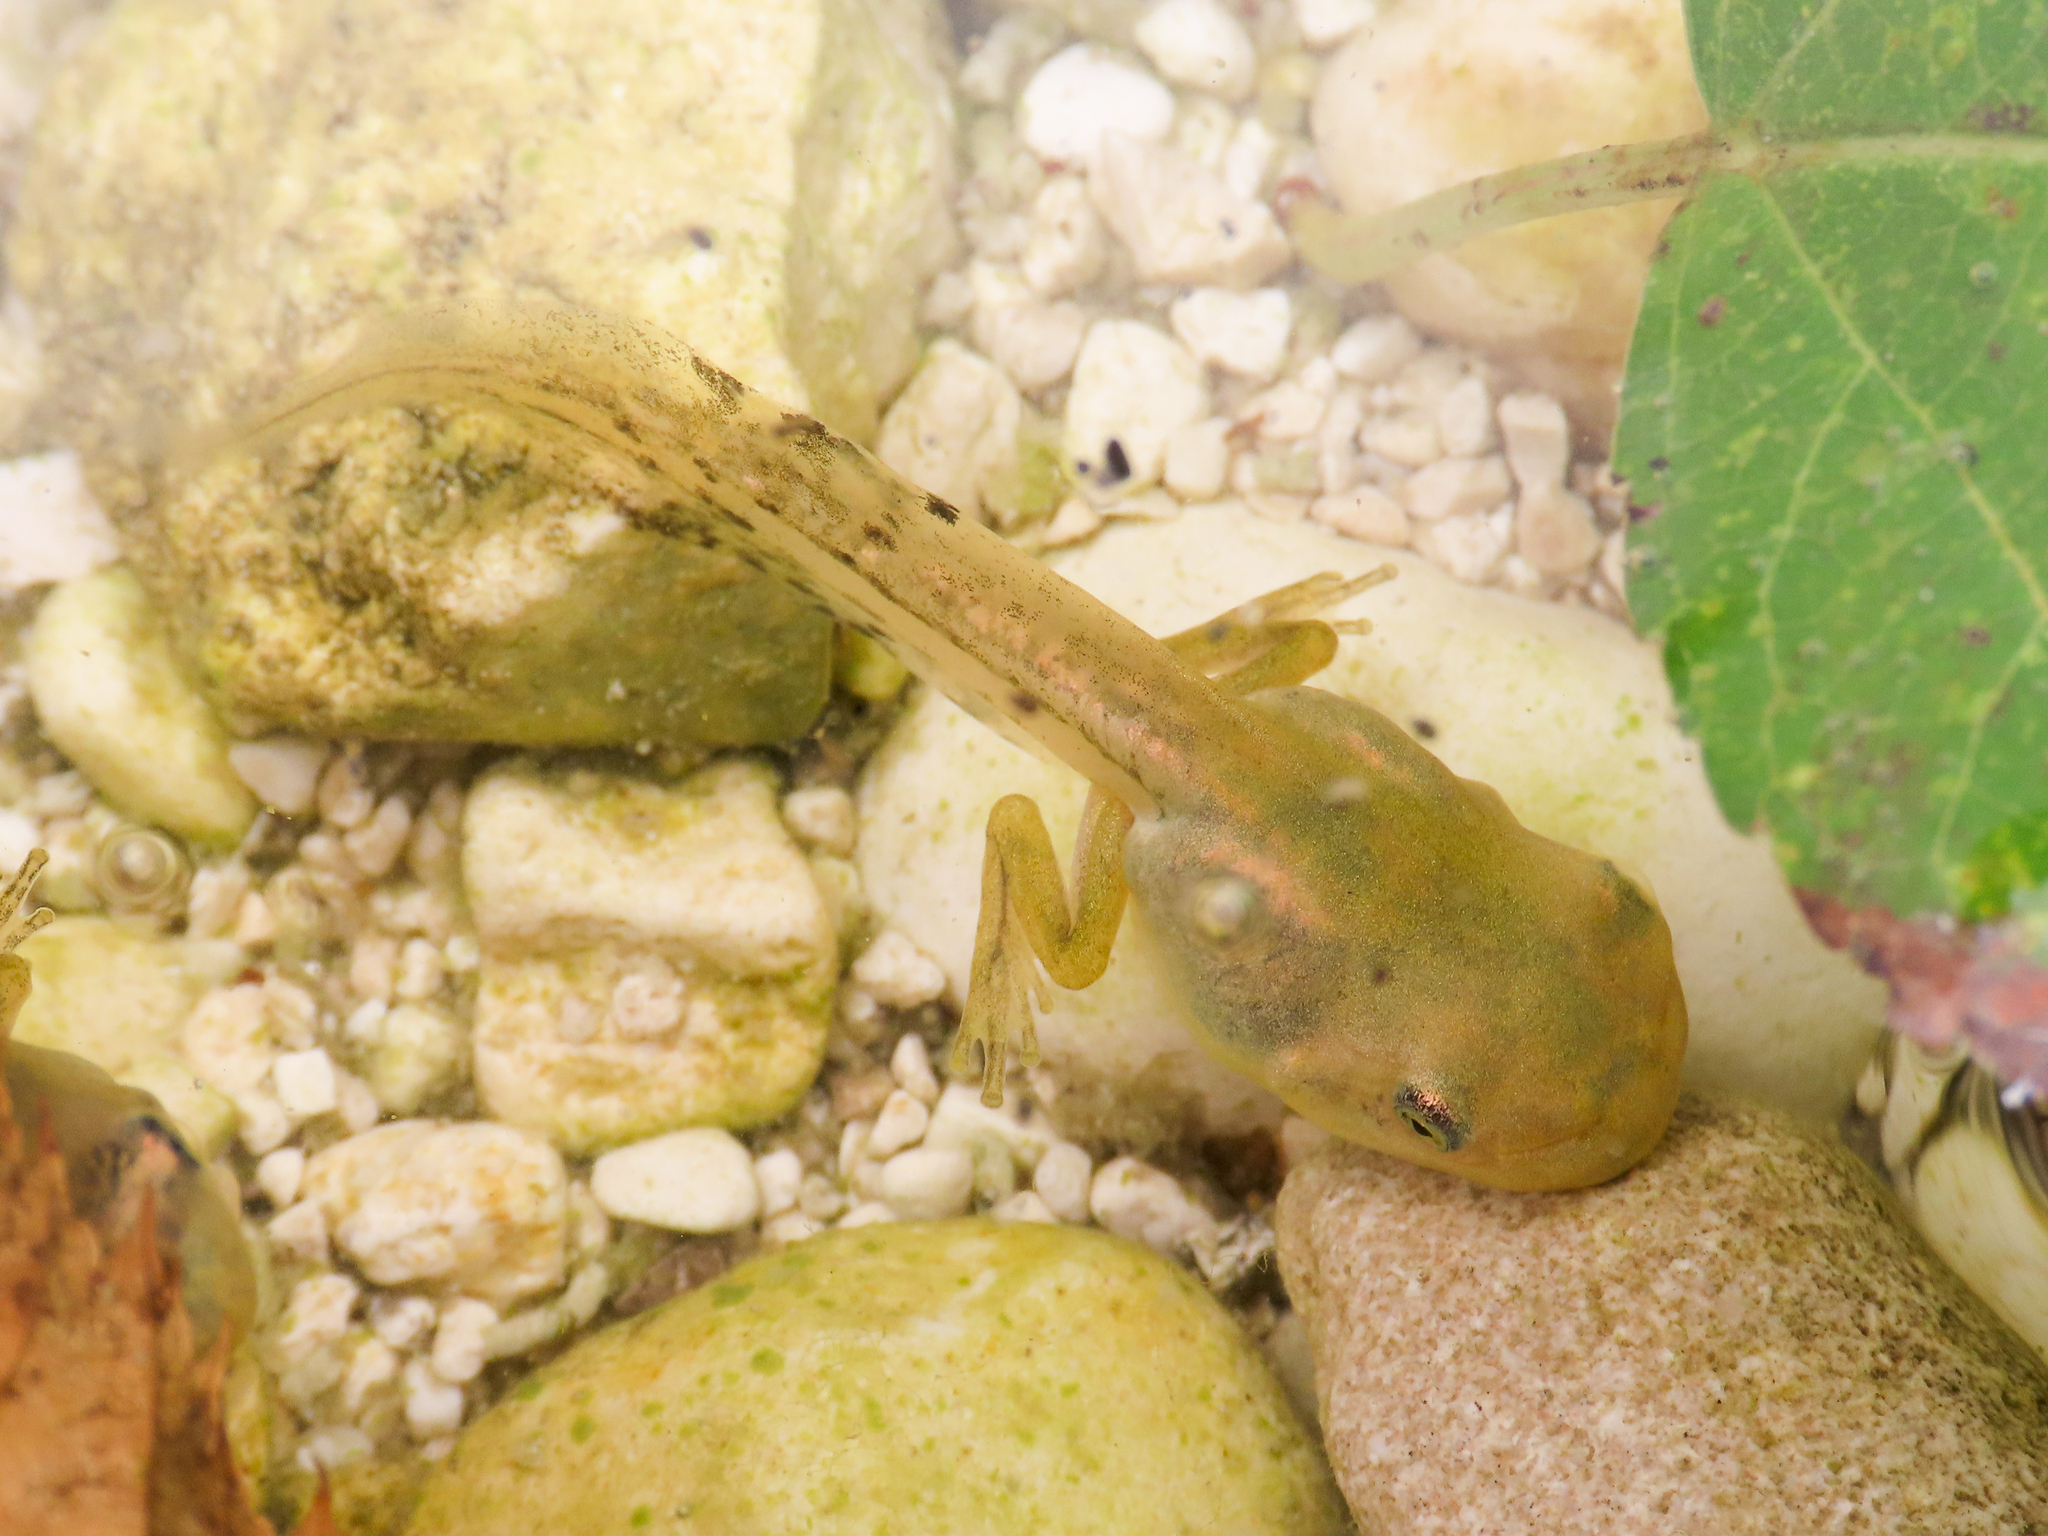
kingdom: Animalia
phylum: Chordata
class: Amphibia
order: Anura
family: Hylidae
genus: Hyla
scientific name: Hyla intermedia
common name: Italian tree frog
